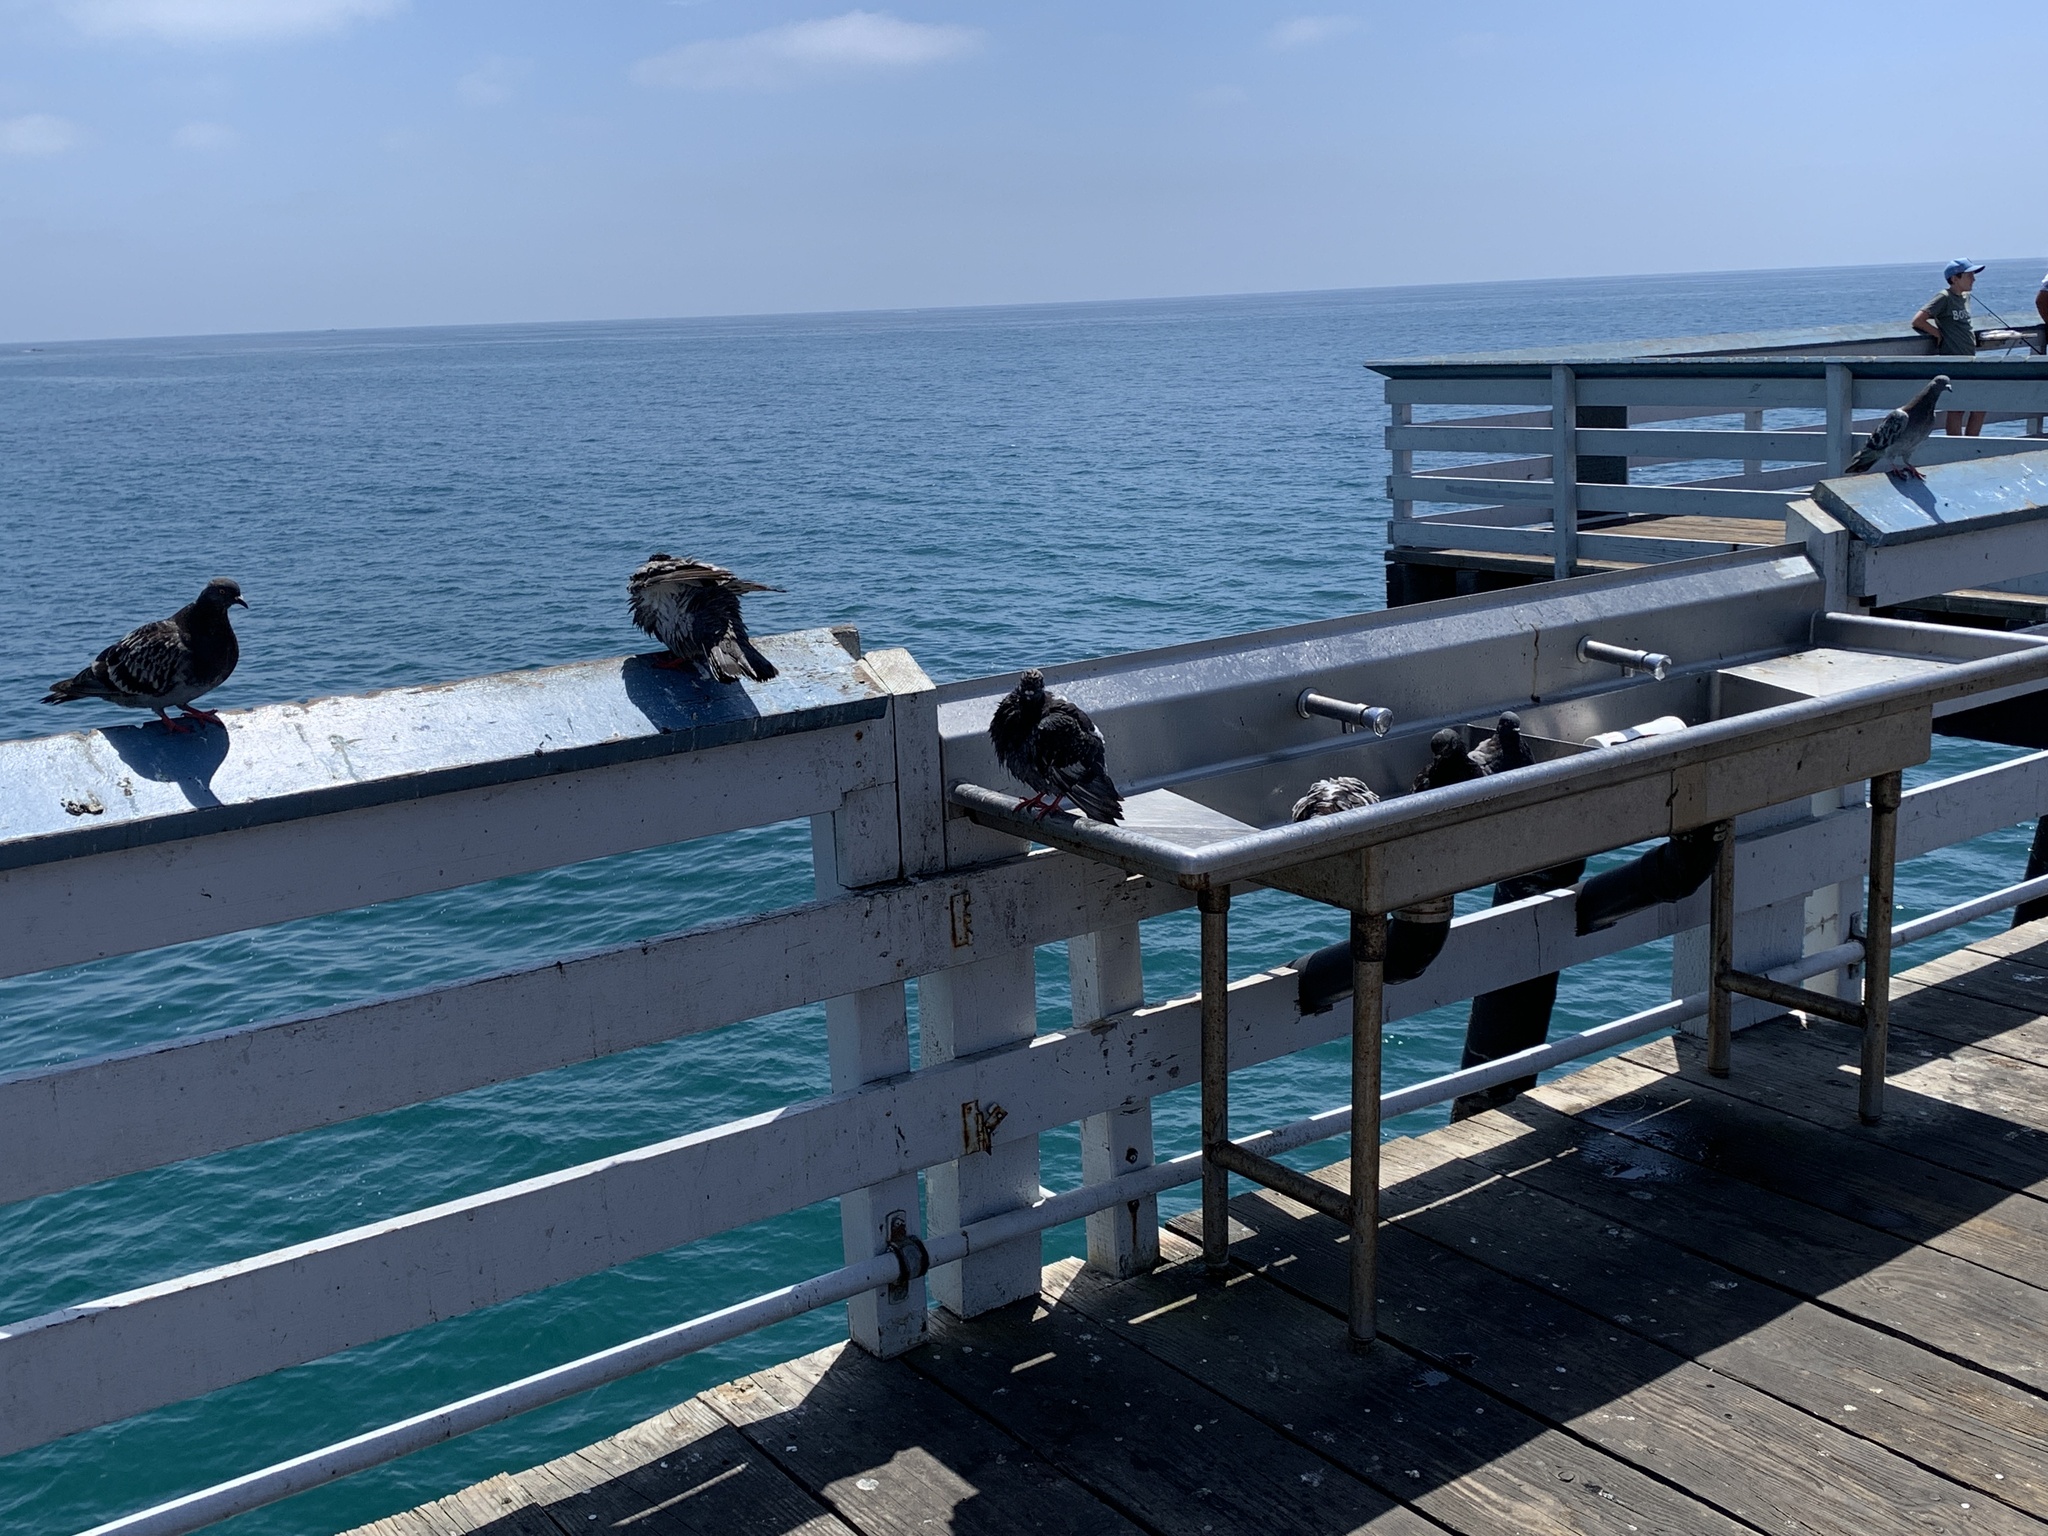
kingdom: Animalia
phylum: Chordata
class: Aves
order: Columbiformes
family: Columbidae
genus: Columba
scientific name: Columba livia
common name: Rock pigeon
